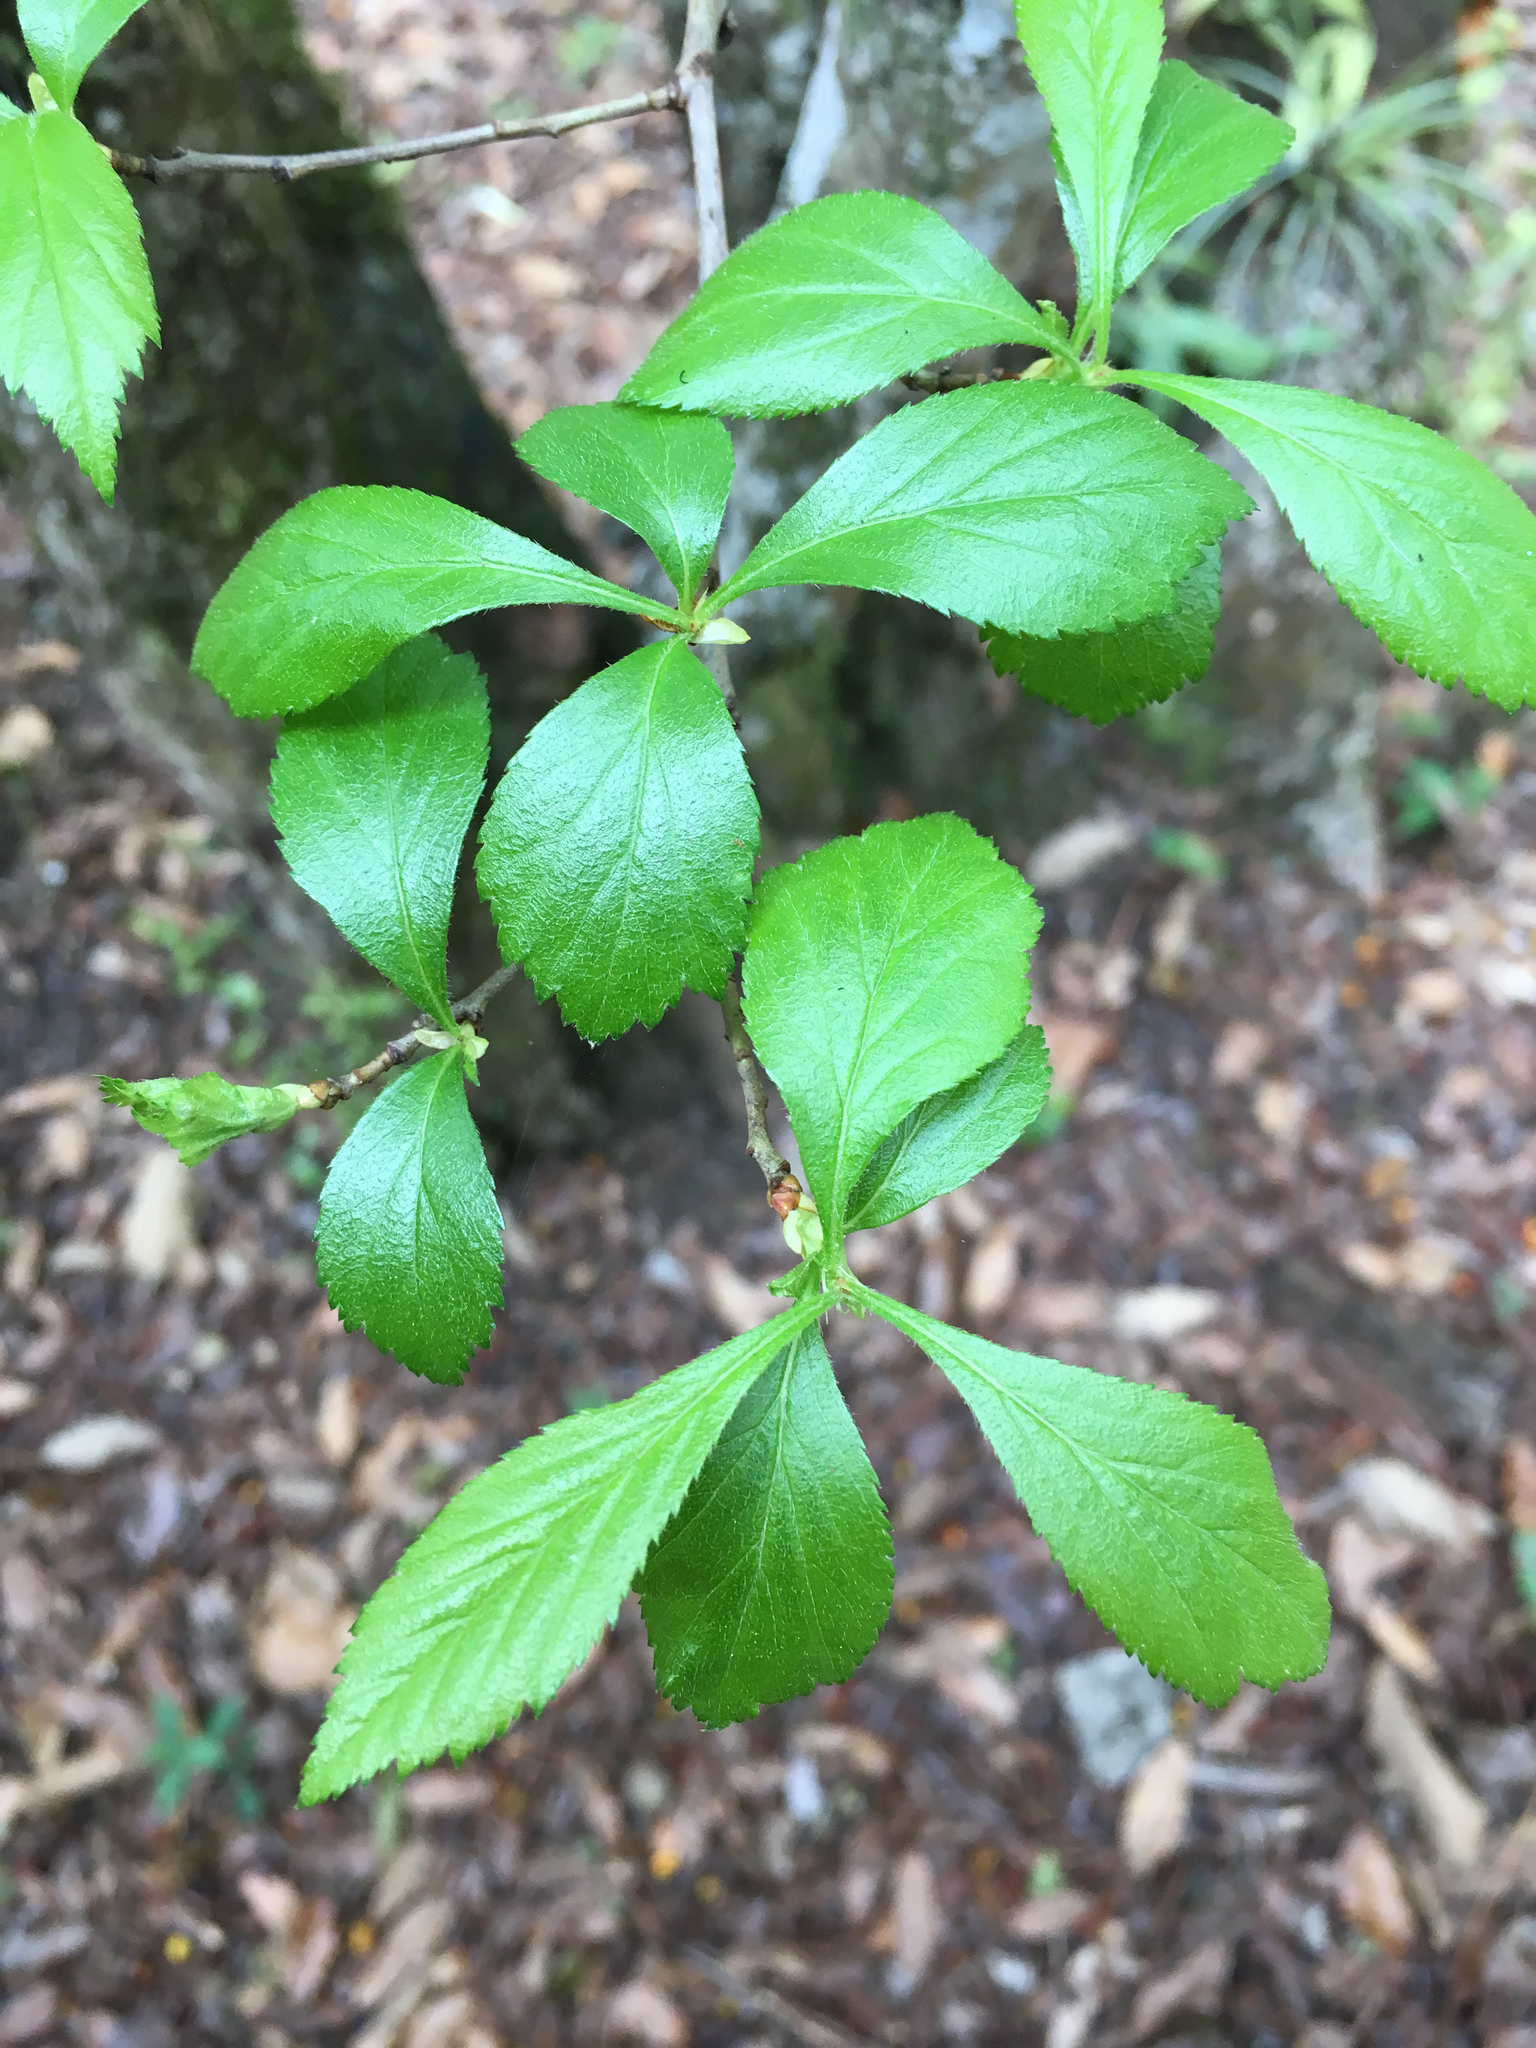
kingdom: Plantae
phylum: Tracheophyta
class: Magnoliopsida
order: Rosales
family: Rosaceae
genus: Crataegus
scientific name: Crataegus mexicana
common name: Mexican hawthorn
